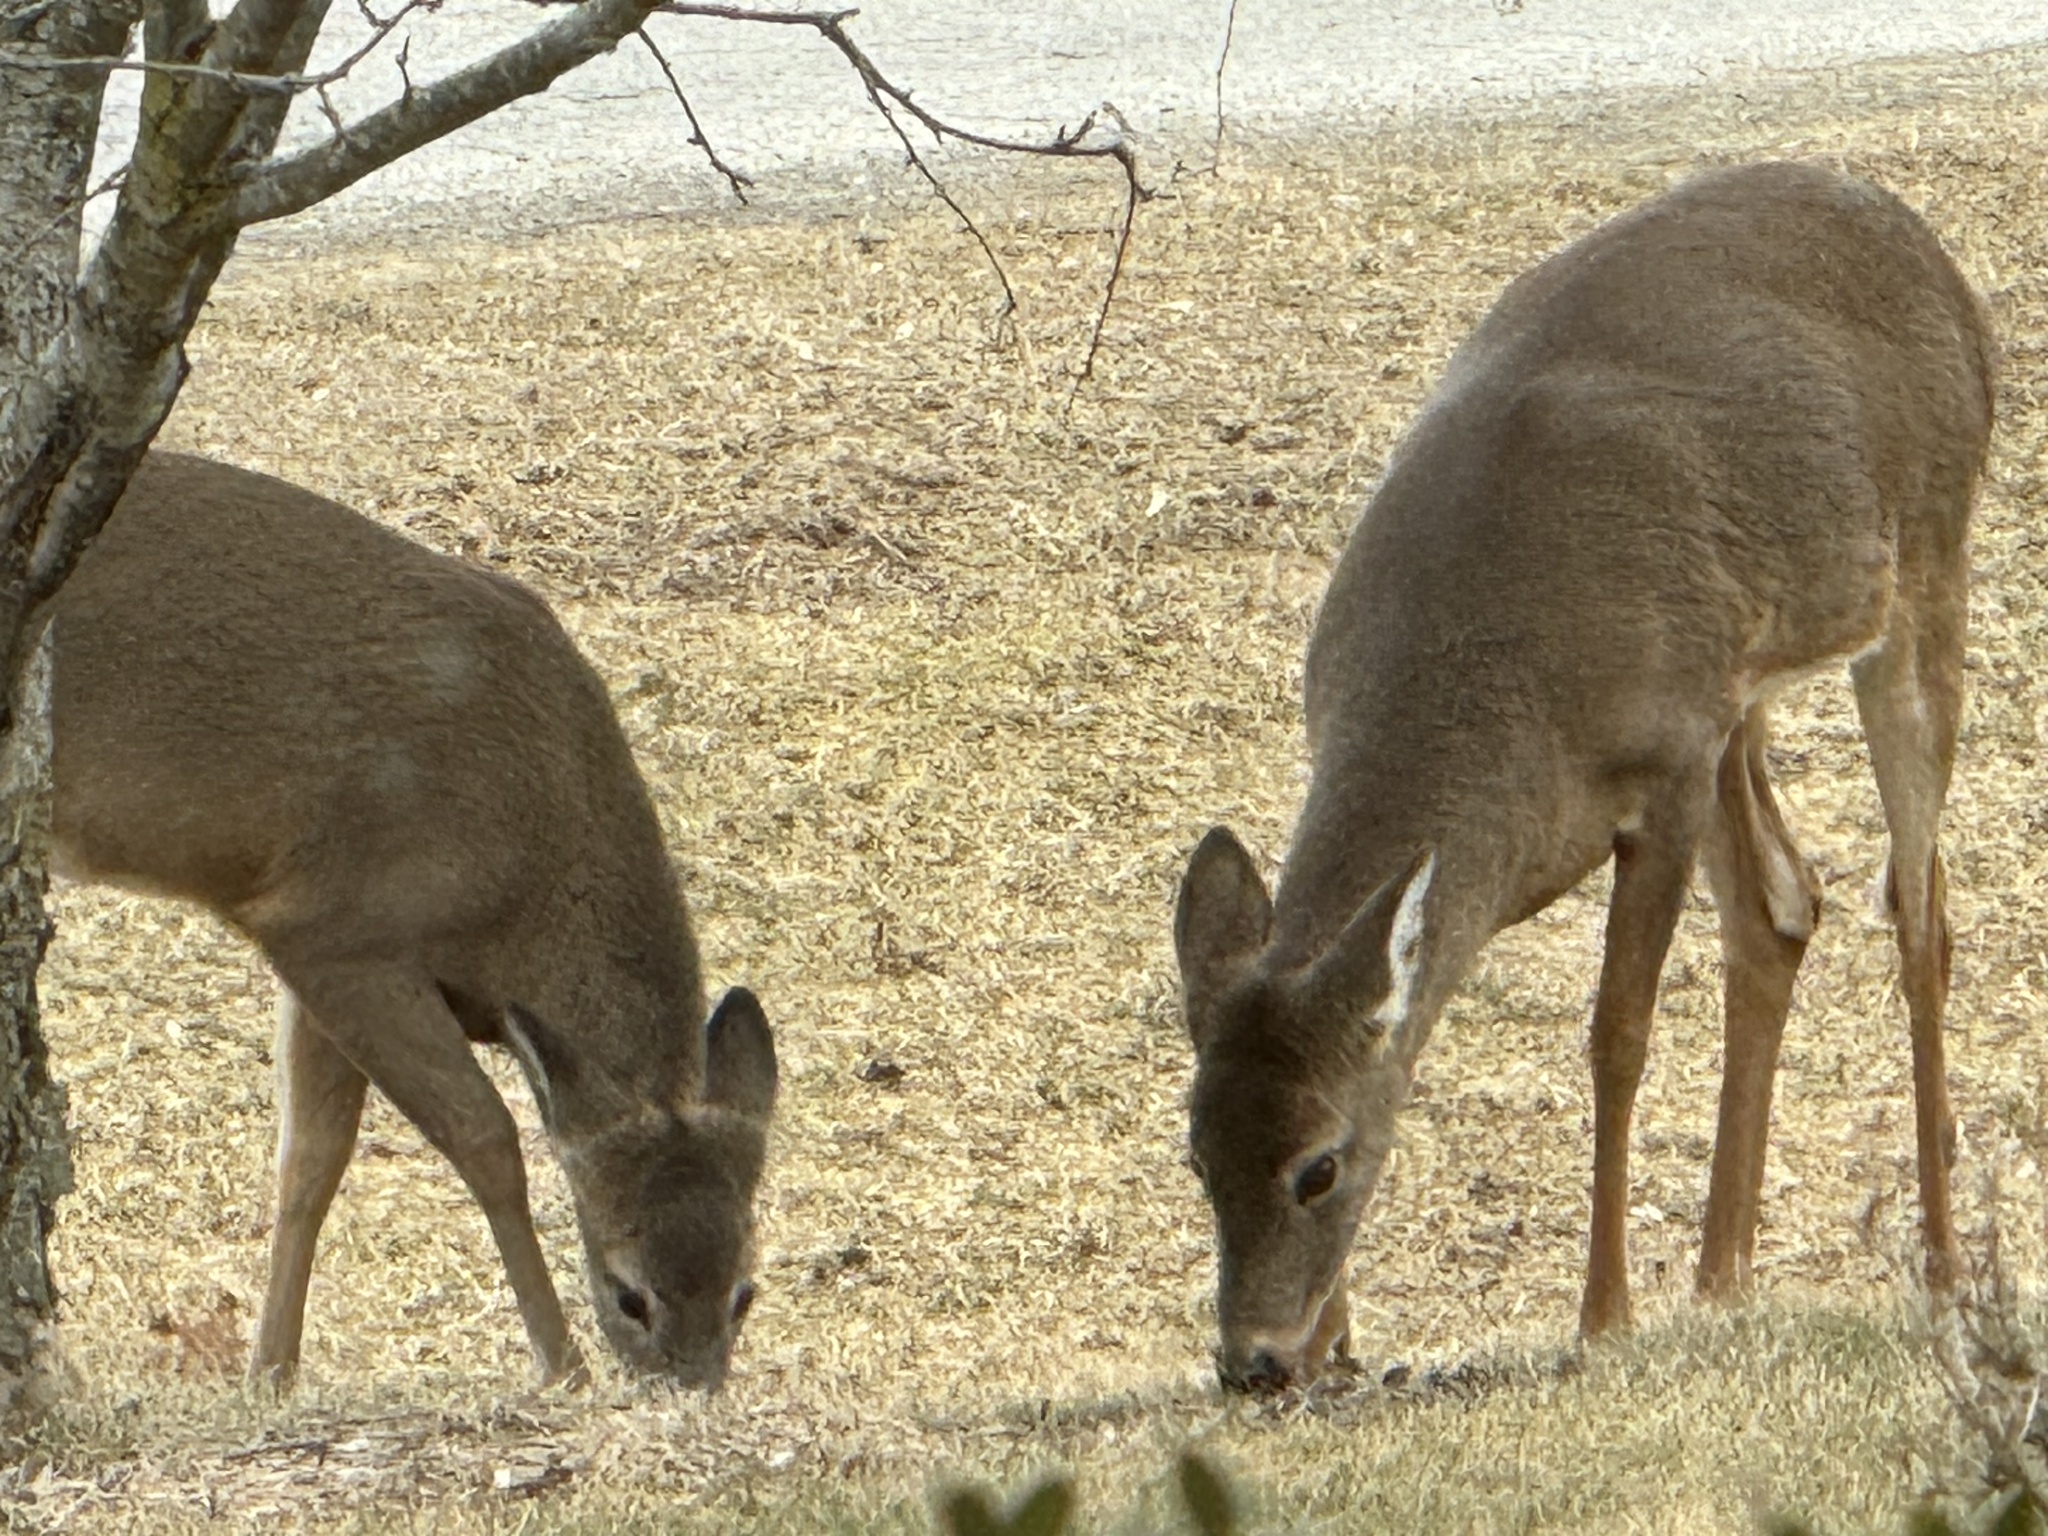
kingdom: Animalia
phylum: Chordata
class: Mammalia
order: Artiodactyla
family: Cervidae
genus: Odocoileus
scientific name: Odocoileus virginianus
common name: White-tailed deer
